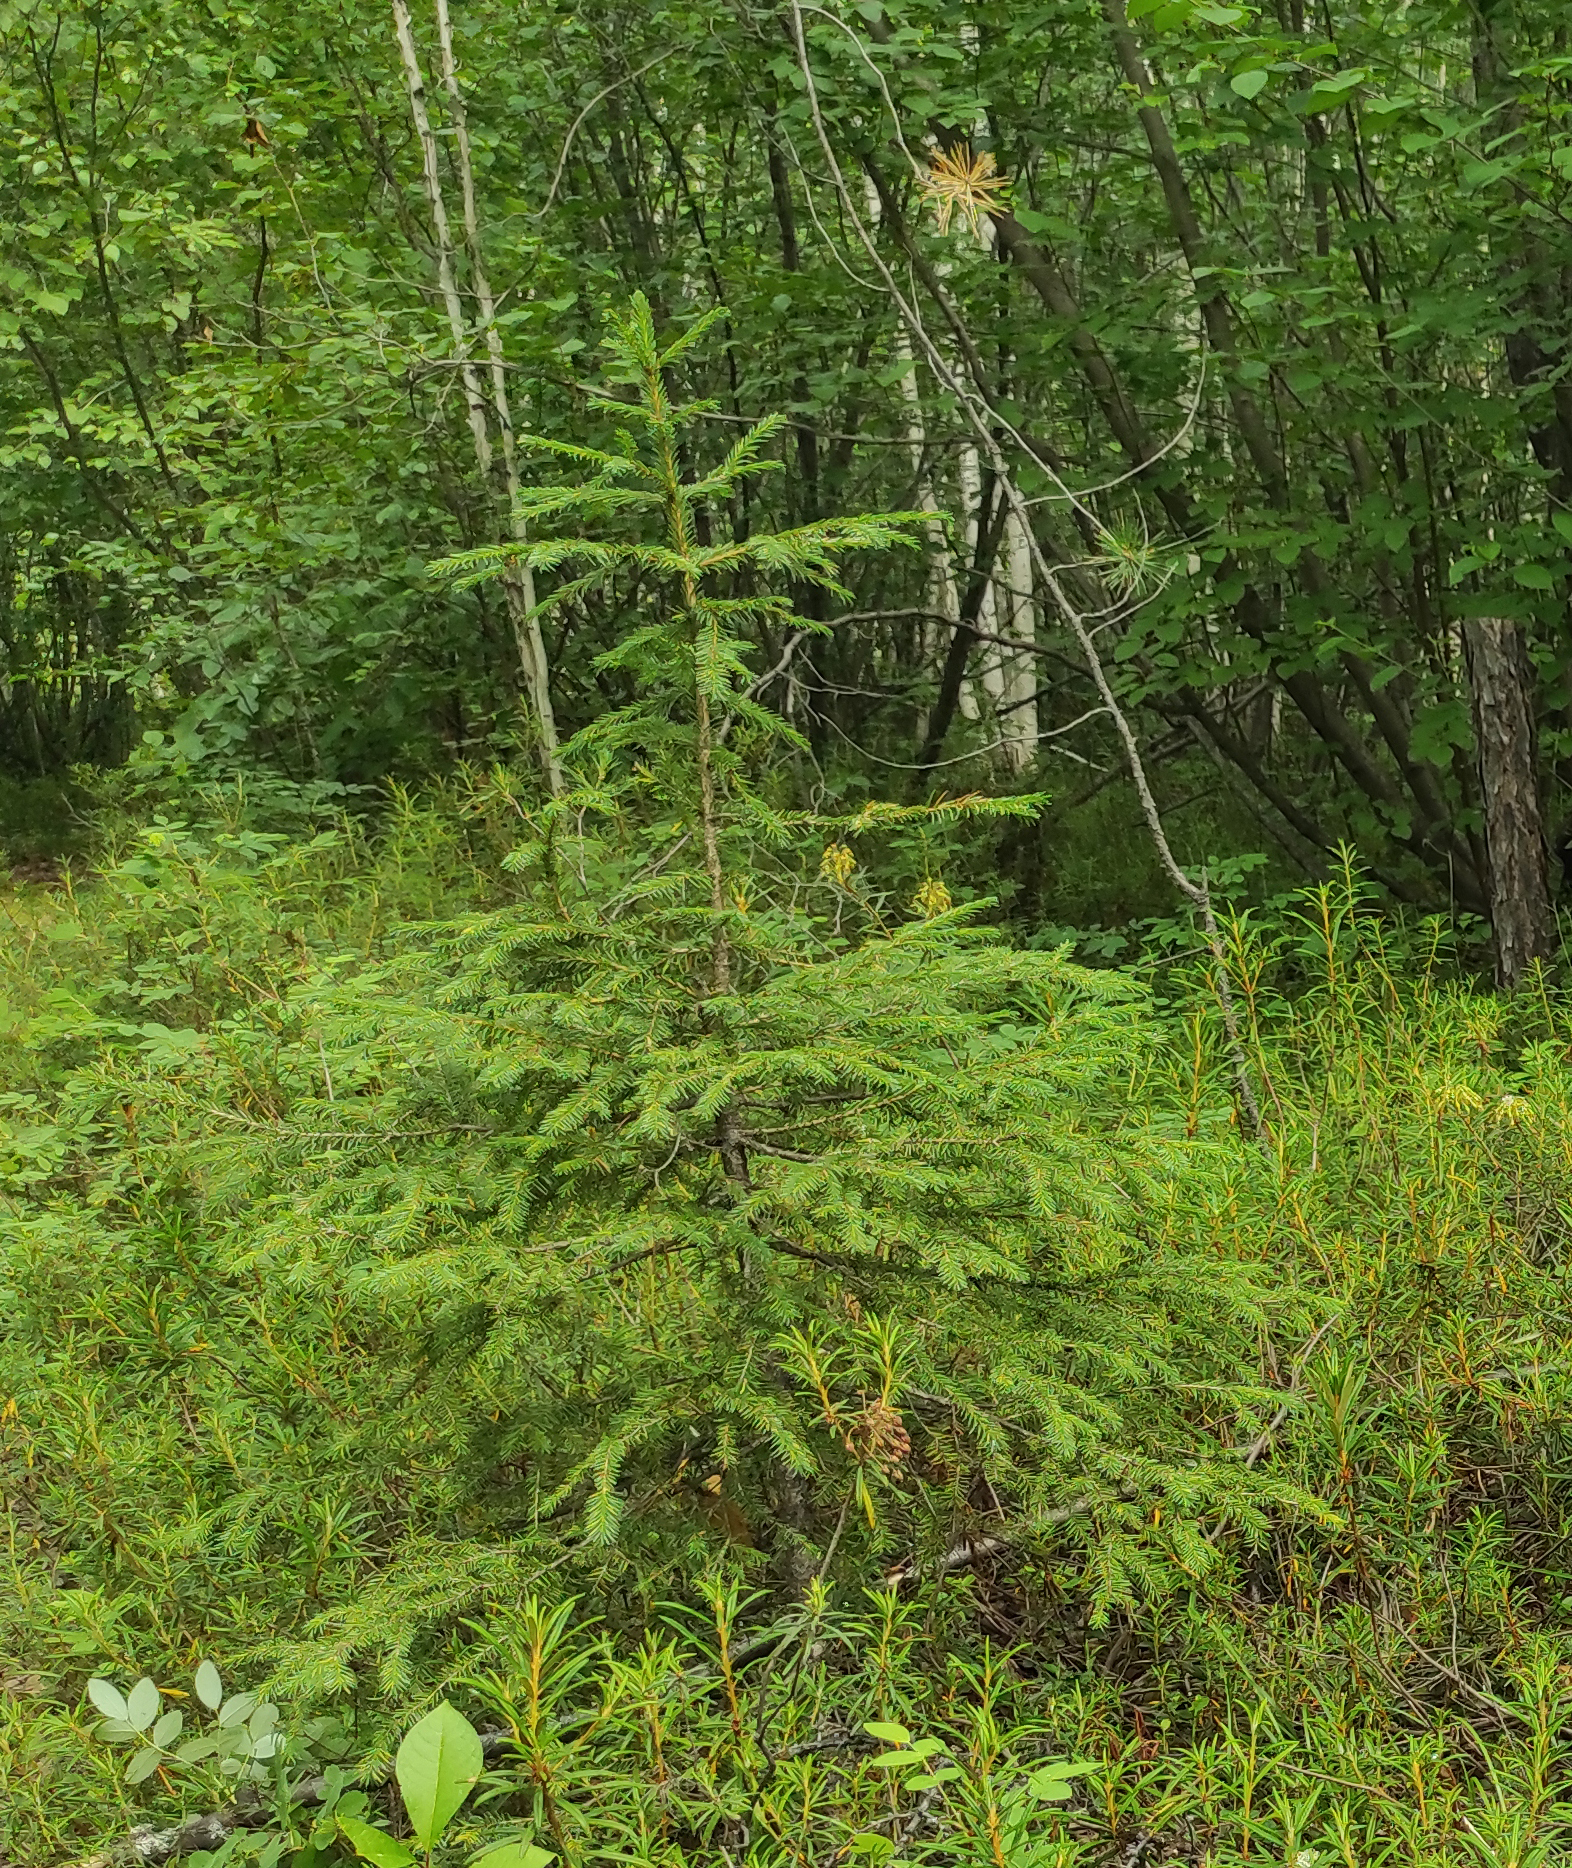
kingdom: Plantae
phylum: Tracheophyta
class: Pinopsida
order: Pinales
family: Pinaceae
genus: Picea
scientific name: Picea obovata
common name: Siberian spruce
